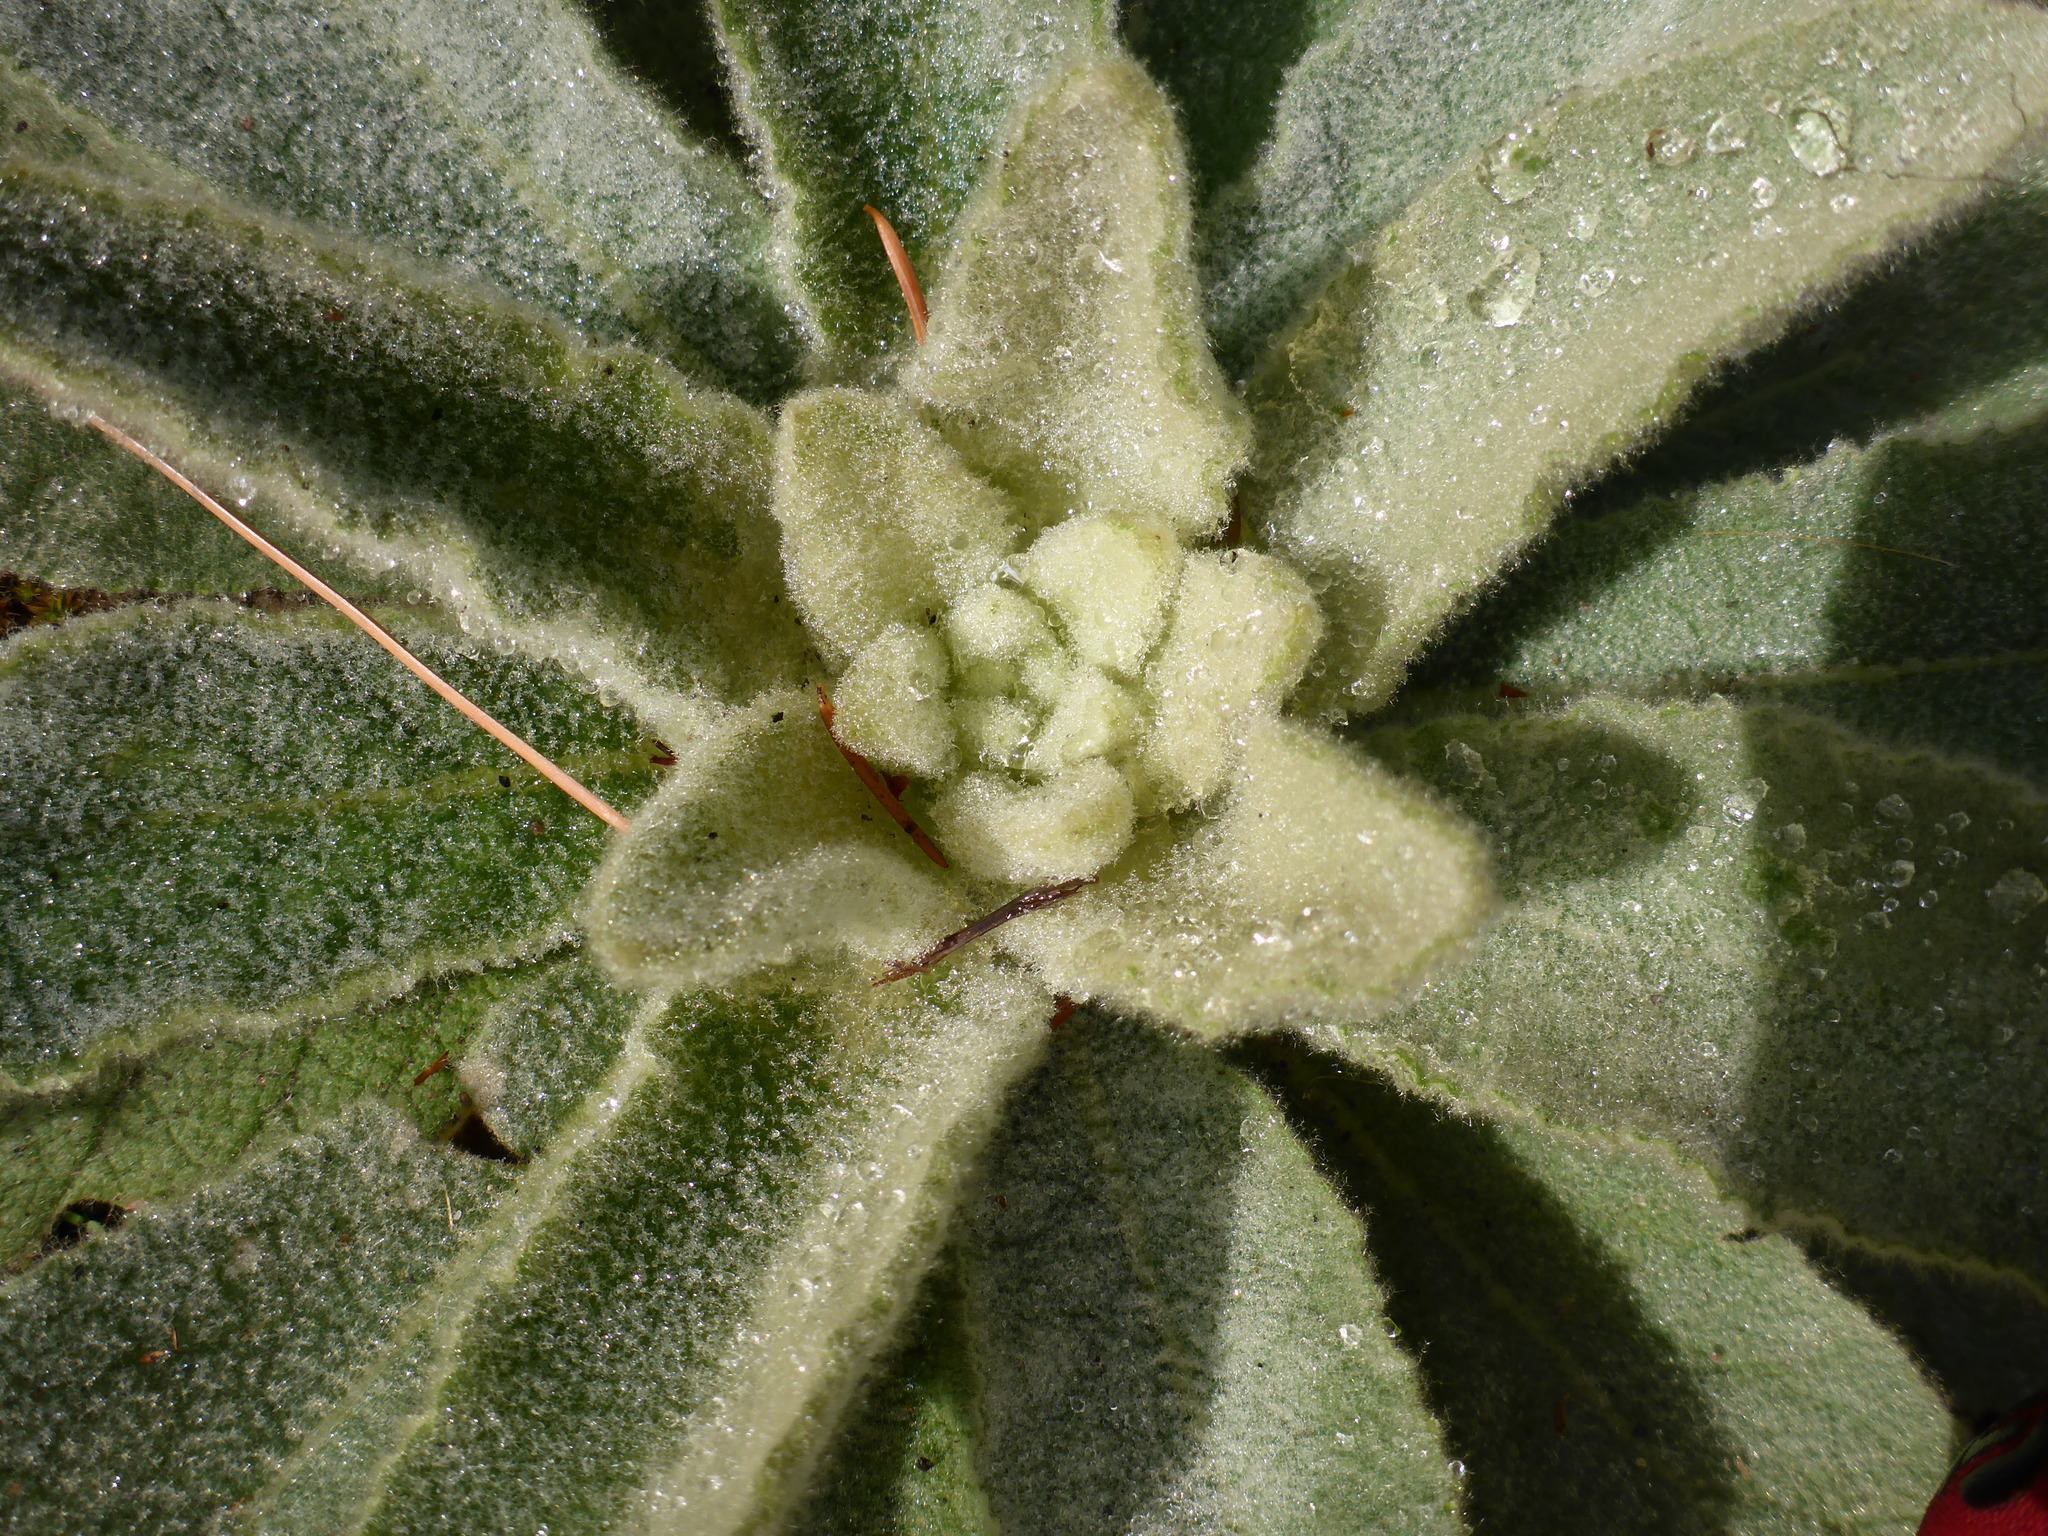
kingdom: Plantae
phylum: Tracheophyta
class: Magnoliopsida
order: Lamiales
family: Scrophulariaceae
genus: Verbascum
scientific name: Verbascum thapsus
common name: Common mullein
